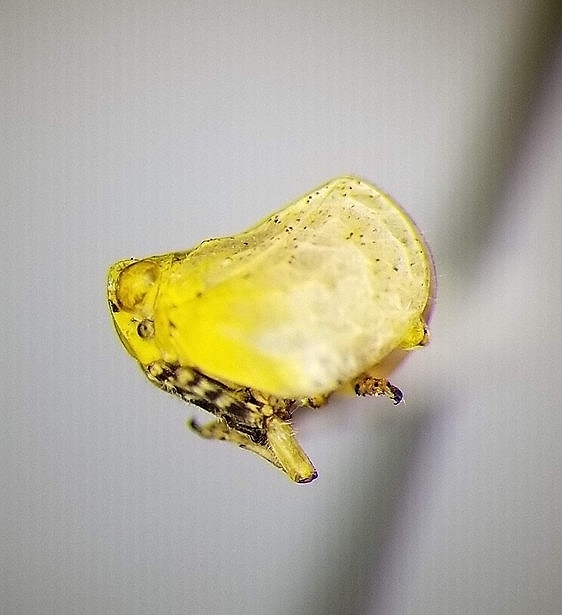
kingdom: Animalia
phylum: Arthropoda
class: Insecta
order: Hemiptera
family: Issidae
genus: Kathleenum
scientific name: Kathleenum cornutum
